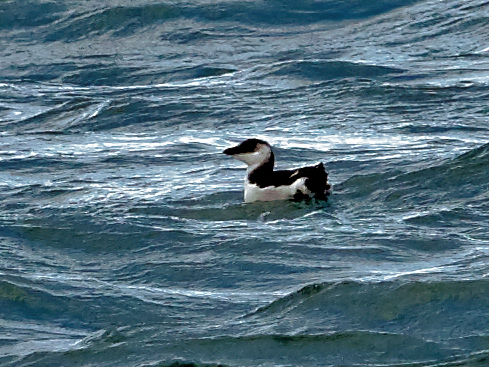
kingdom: Animalia
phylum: Chordata
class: Aves
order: Charadriiformes
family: Alcidae
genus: Alca
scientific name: Alca torda
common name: Razorbill
